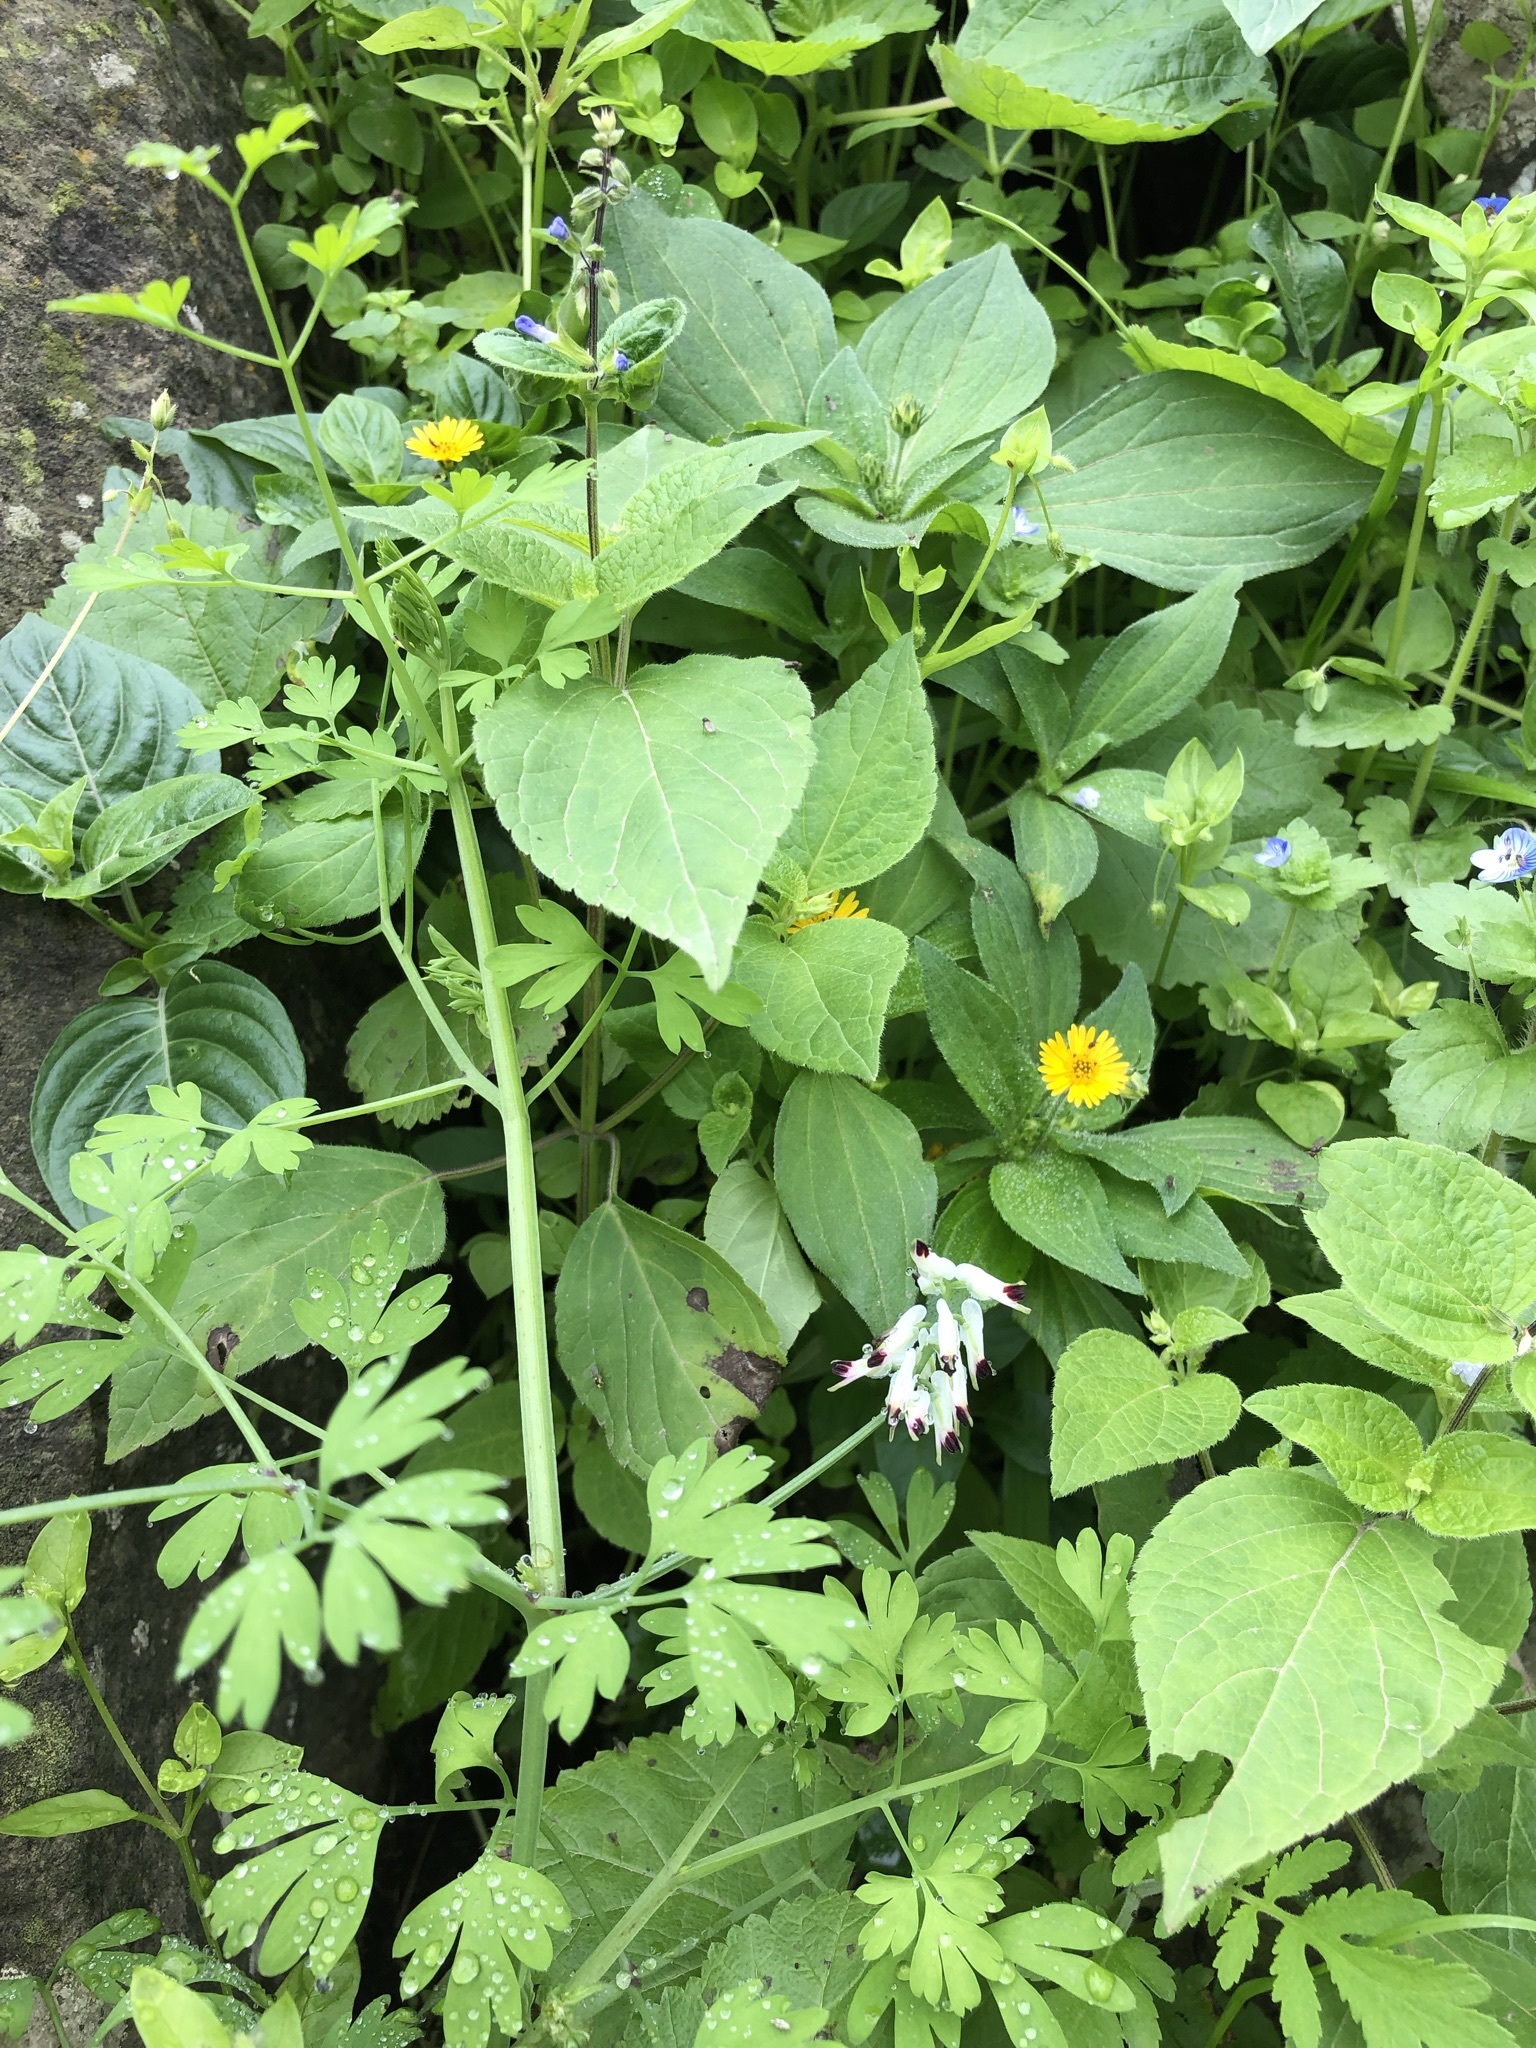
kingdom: Plantae
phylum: Tracheophyta
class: Magnoliopsida
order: Ranunculales
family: Papaveraceae
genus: Fumaria
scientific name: Fumaria capreolata
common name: White ramping-fumitory
